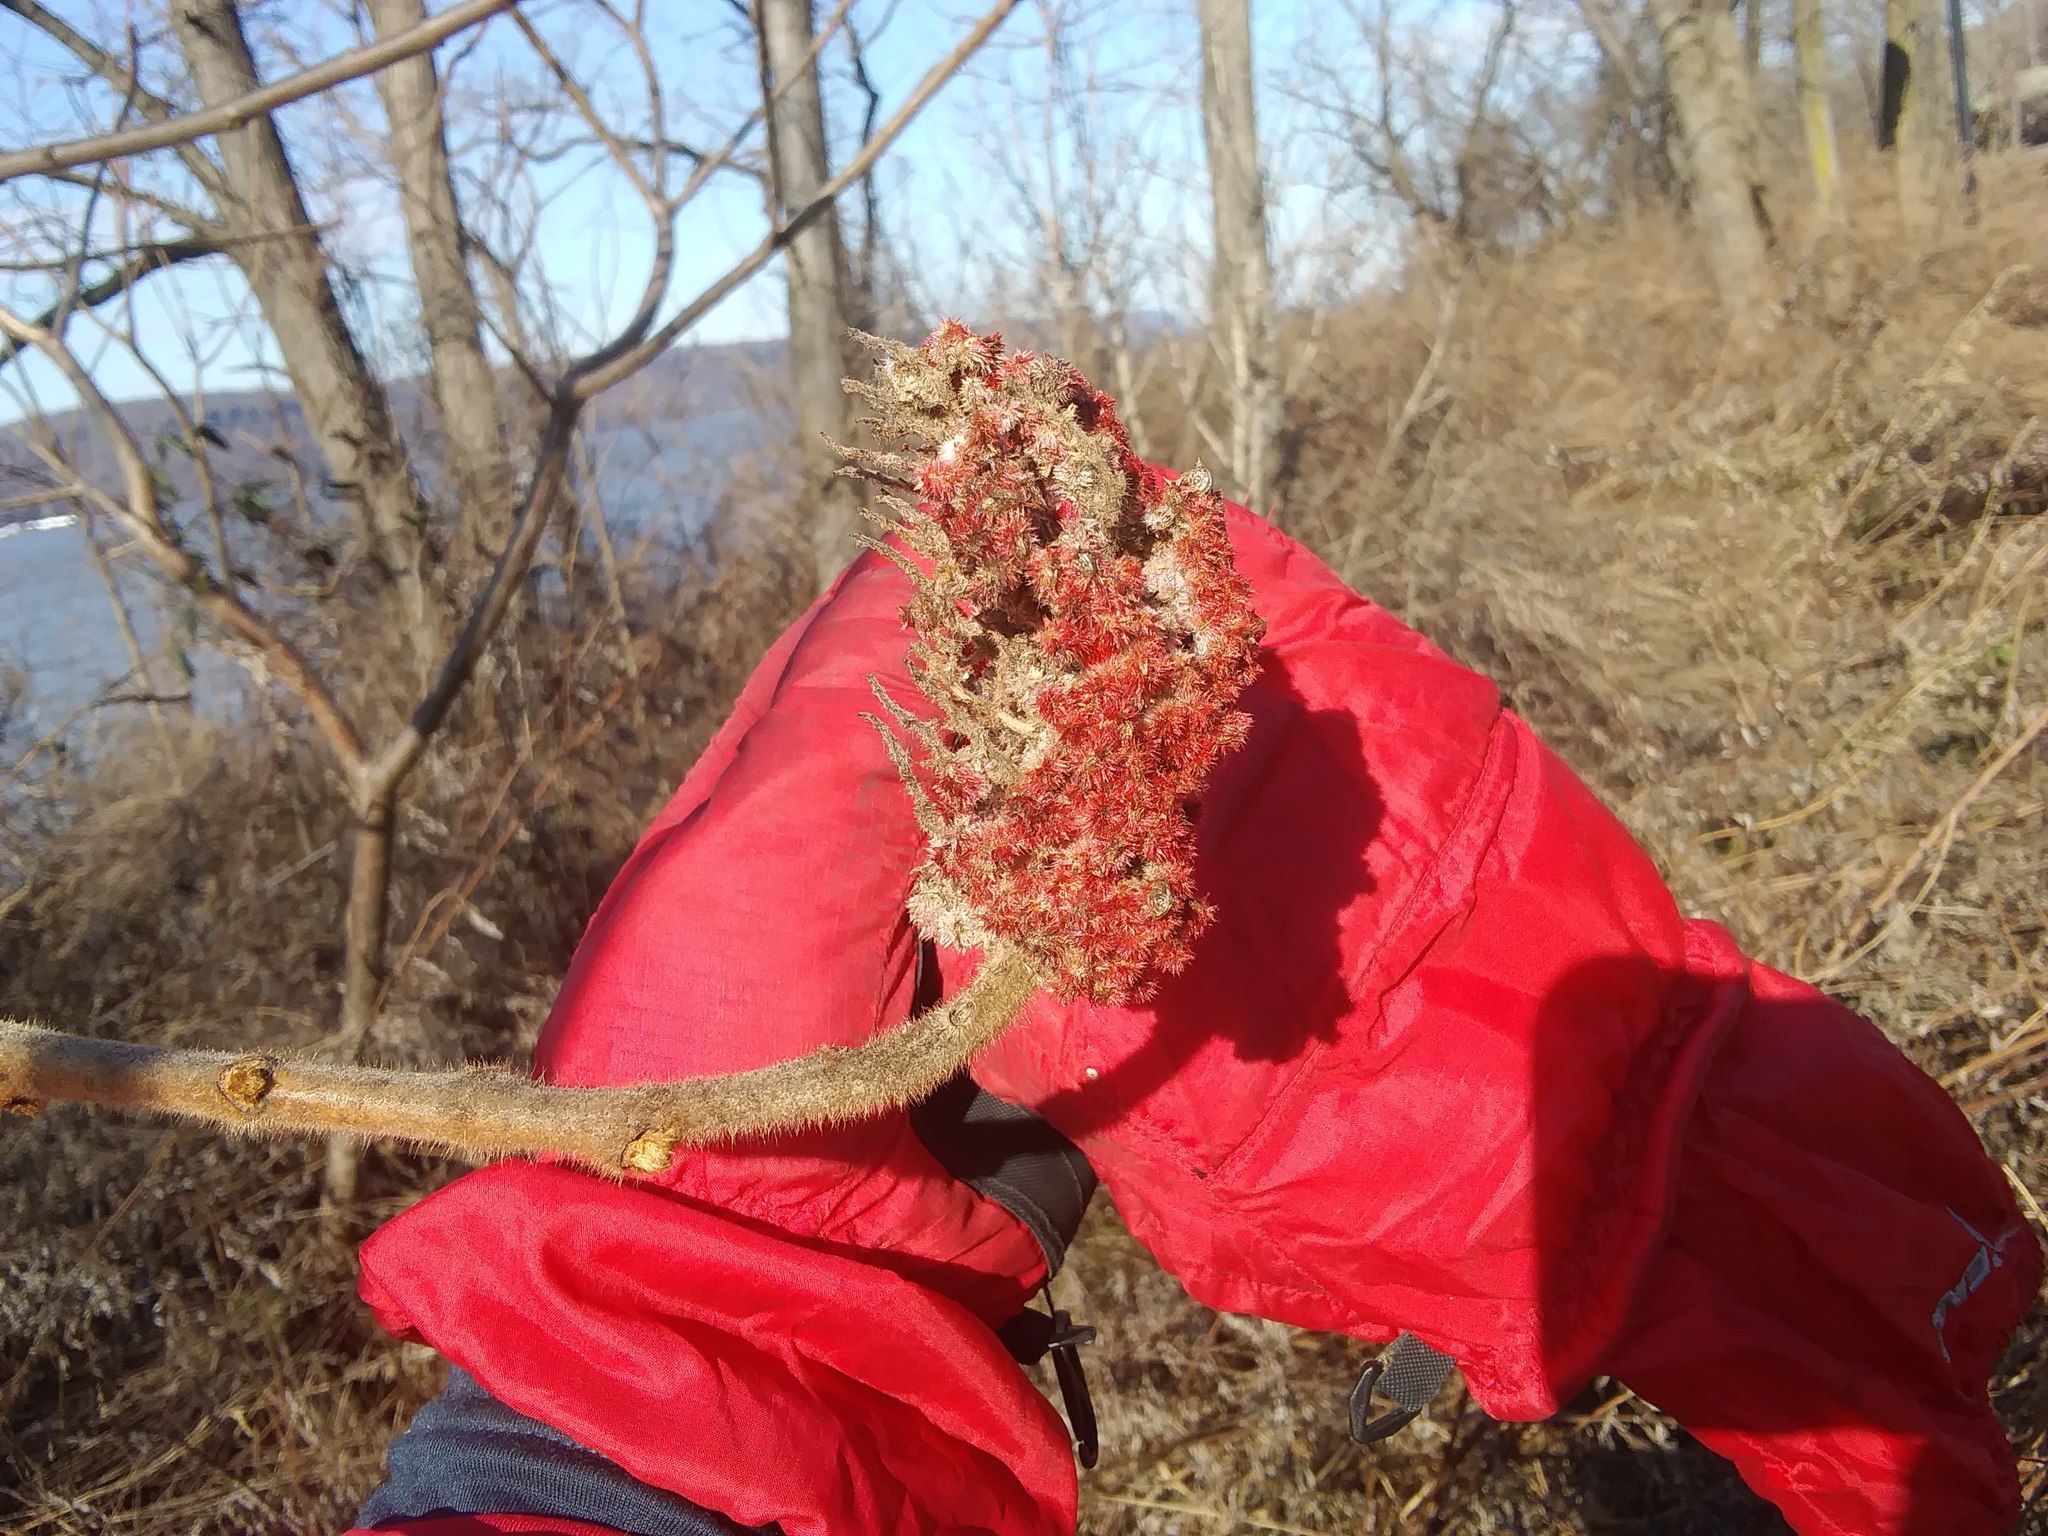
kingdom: Plantae
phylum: Tracheophyta
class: Magnoliopsida
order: Sapindales
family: Anacardiaceae
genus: Rhus
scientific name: Rhus typhina
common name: Staghorn sumac
